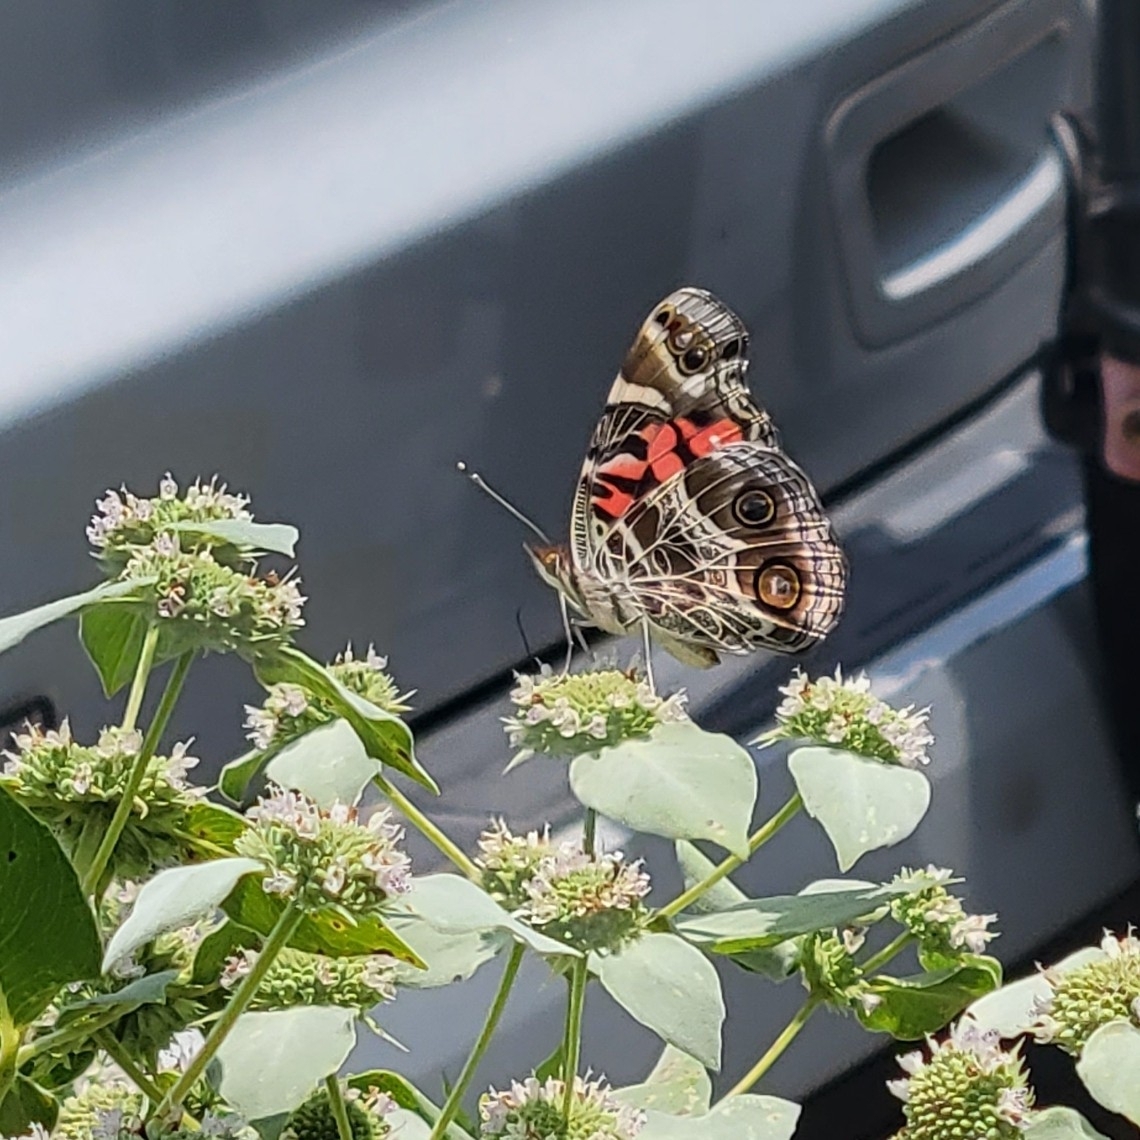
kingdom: Animalia
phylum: Arthropoda
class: Insecta
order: Lepidoptera
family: Nymphalidae
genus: Vanessa
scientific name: Vanessa virginiensis
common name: American lady
